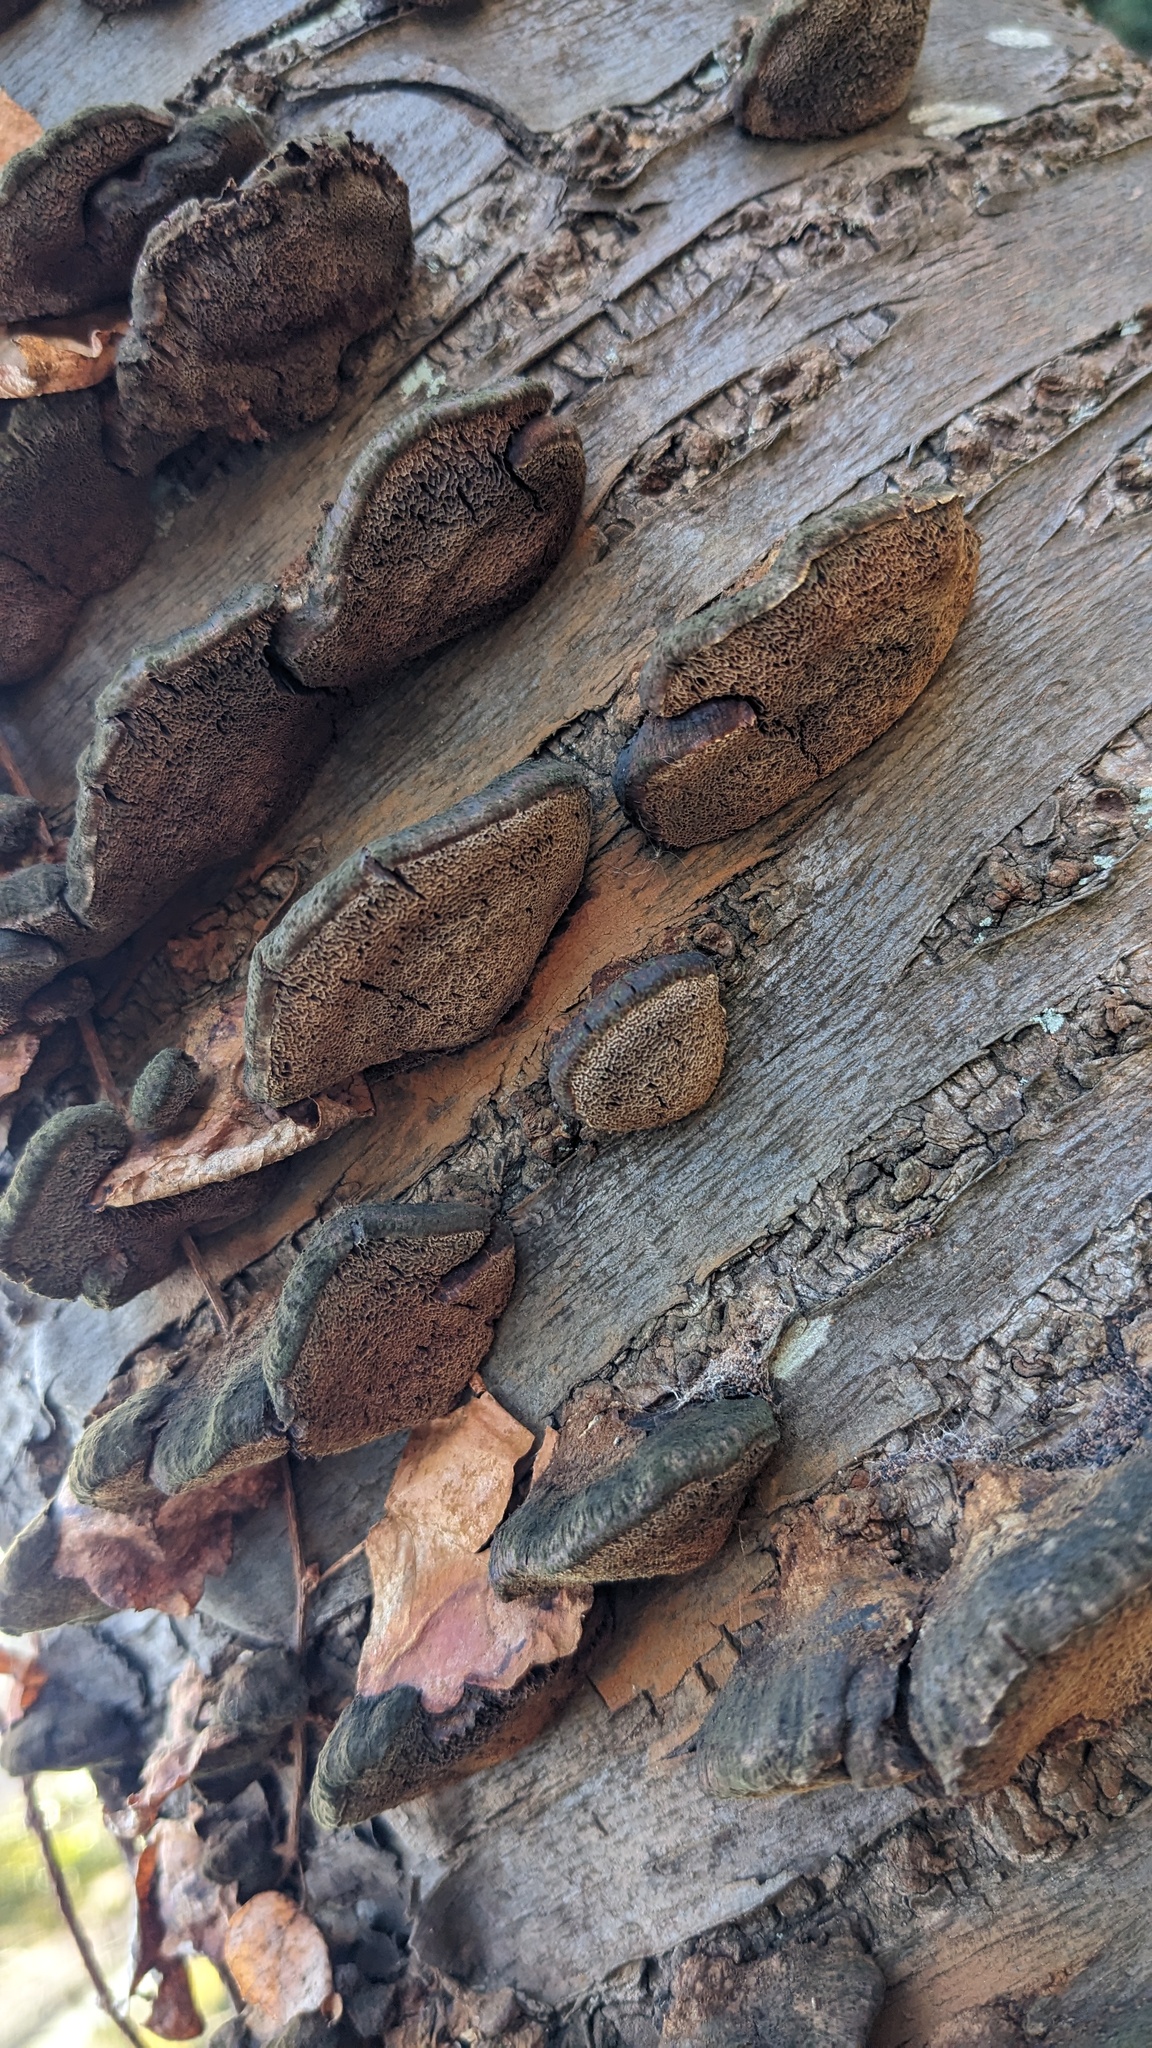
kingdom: Fungi
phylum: Basidiomycota
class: Agaricomycetes
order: Hymenochaetales
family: Hymenochaetaceae
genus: Inocutis
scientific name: Inocutis mikadoi
